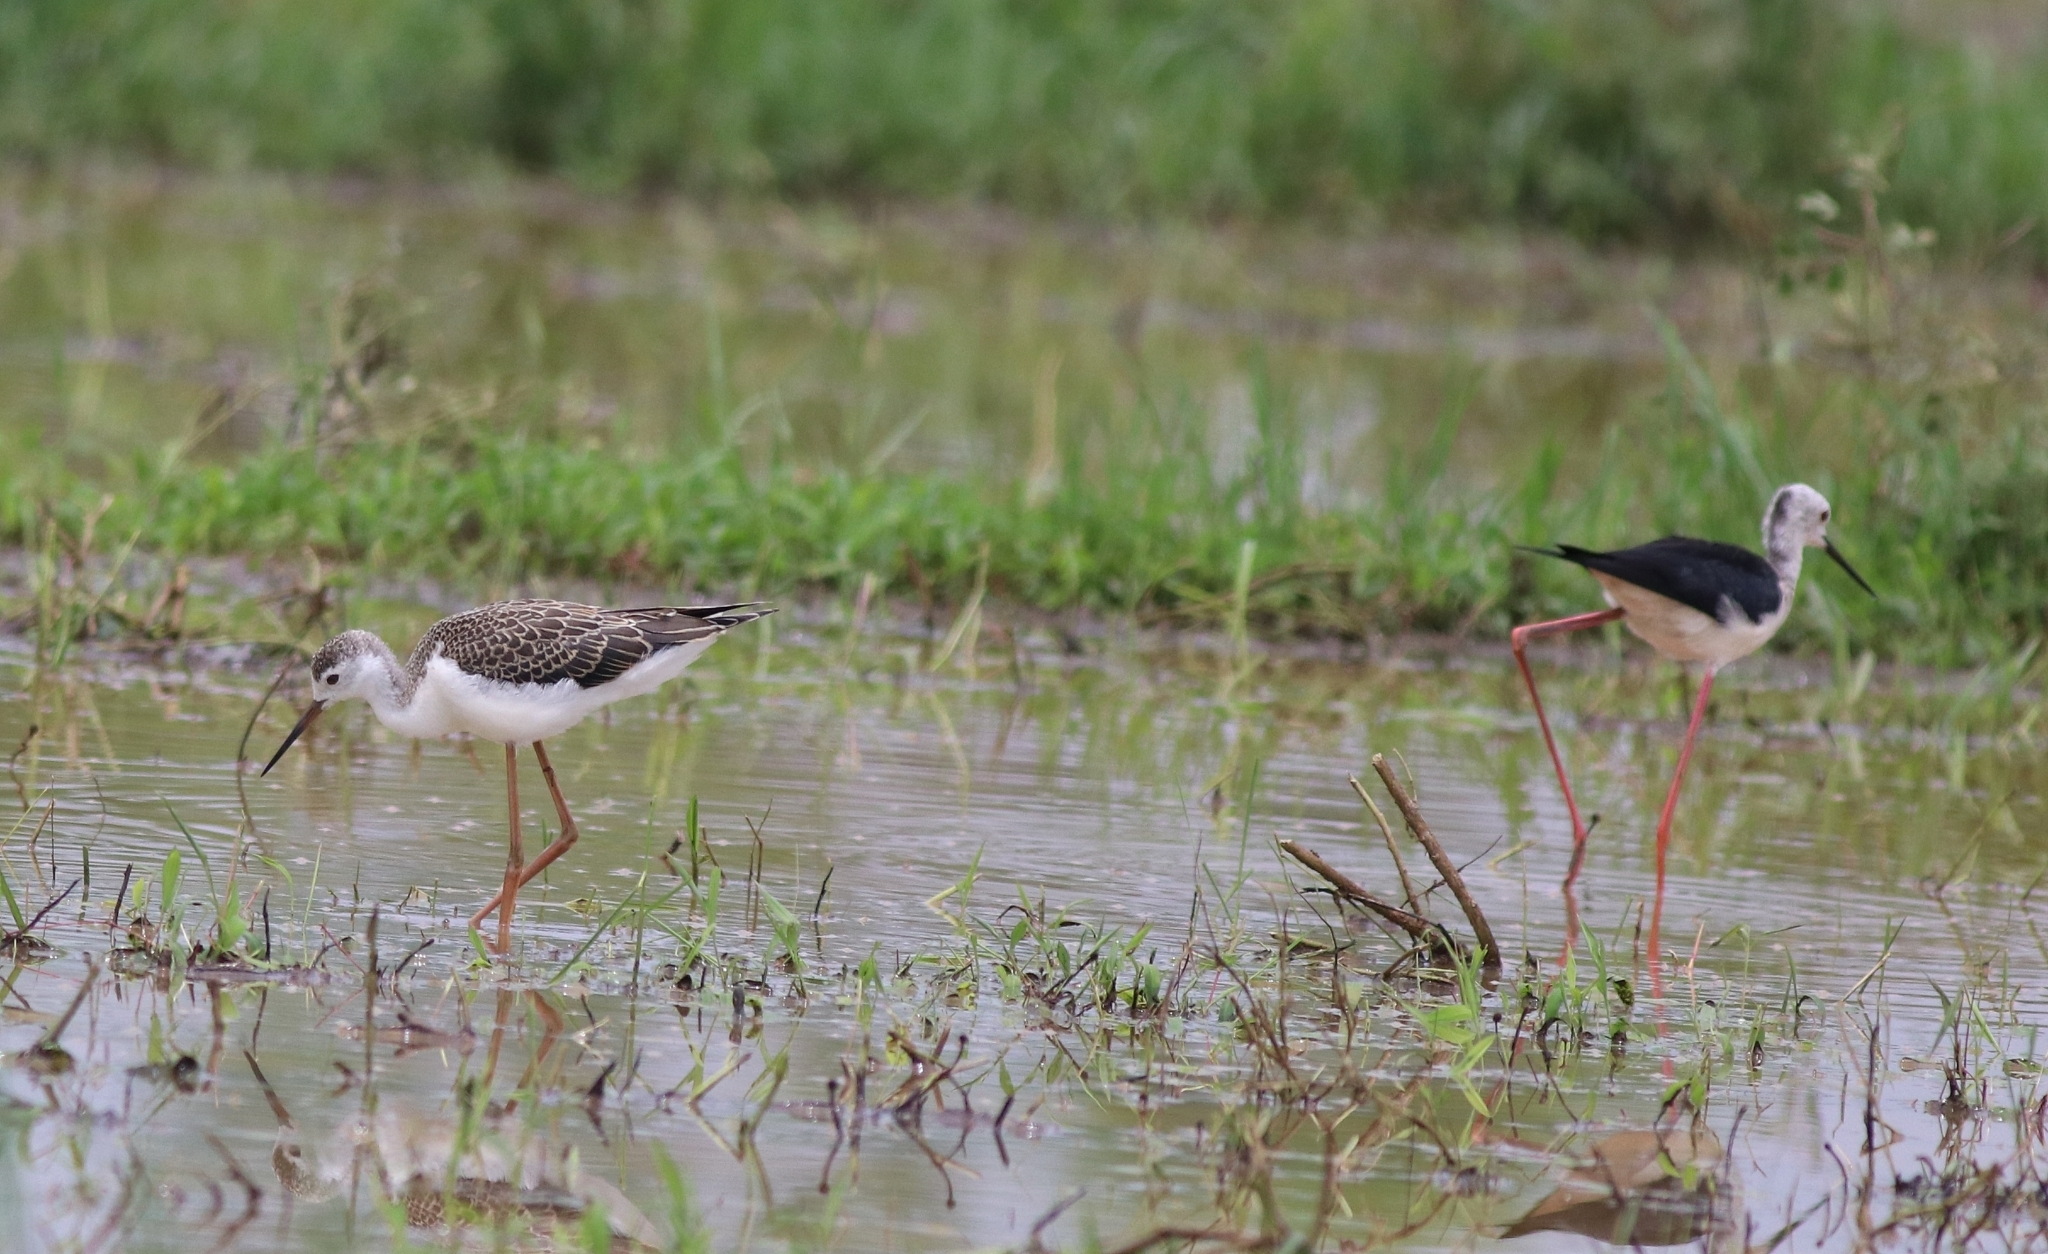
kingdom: Animalia
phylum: Chordata
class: Aves
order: Charadriiformes
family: Recurvirostridae
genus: Himantopus
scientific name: Himantopus himantopus
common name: Black-winged stilt
